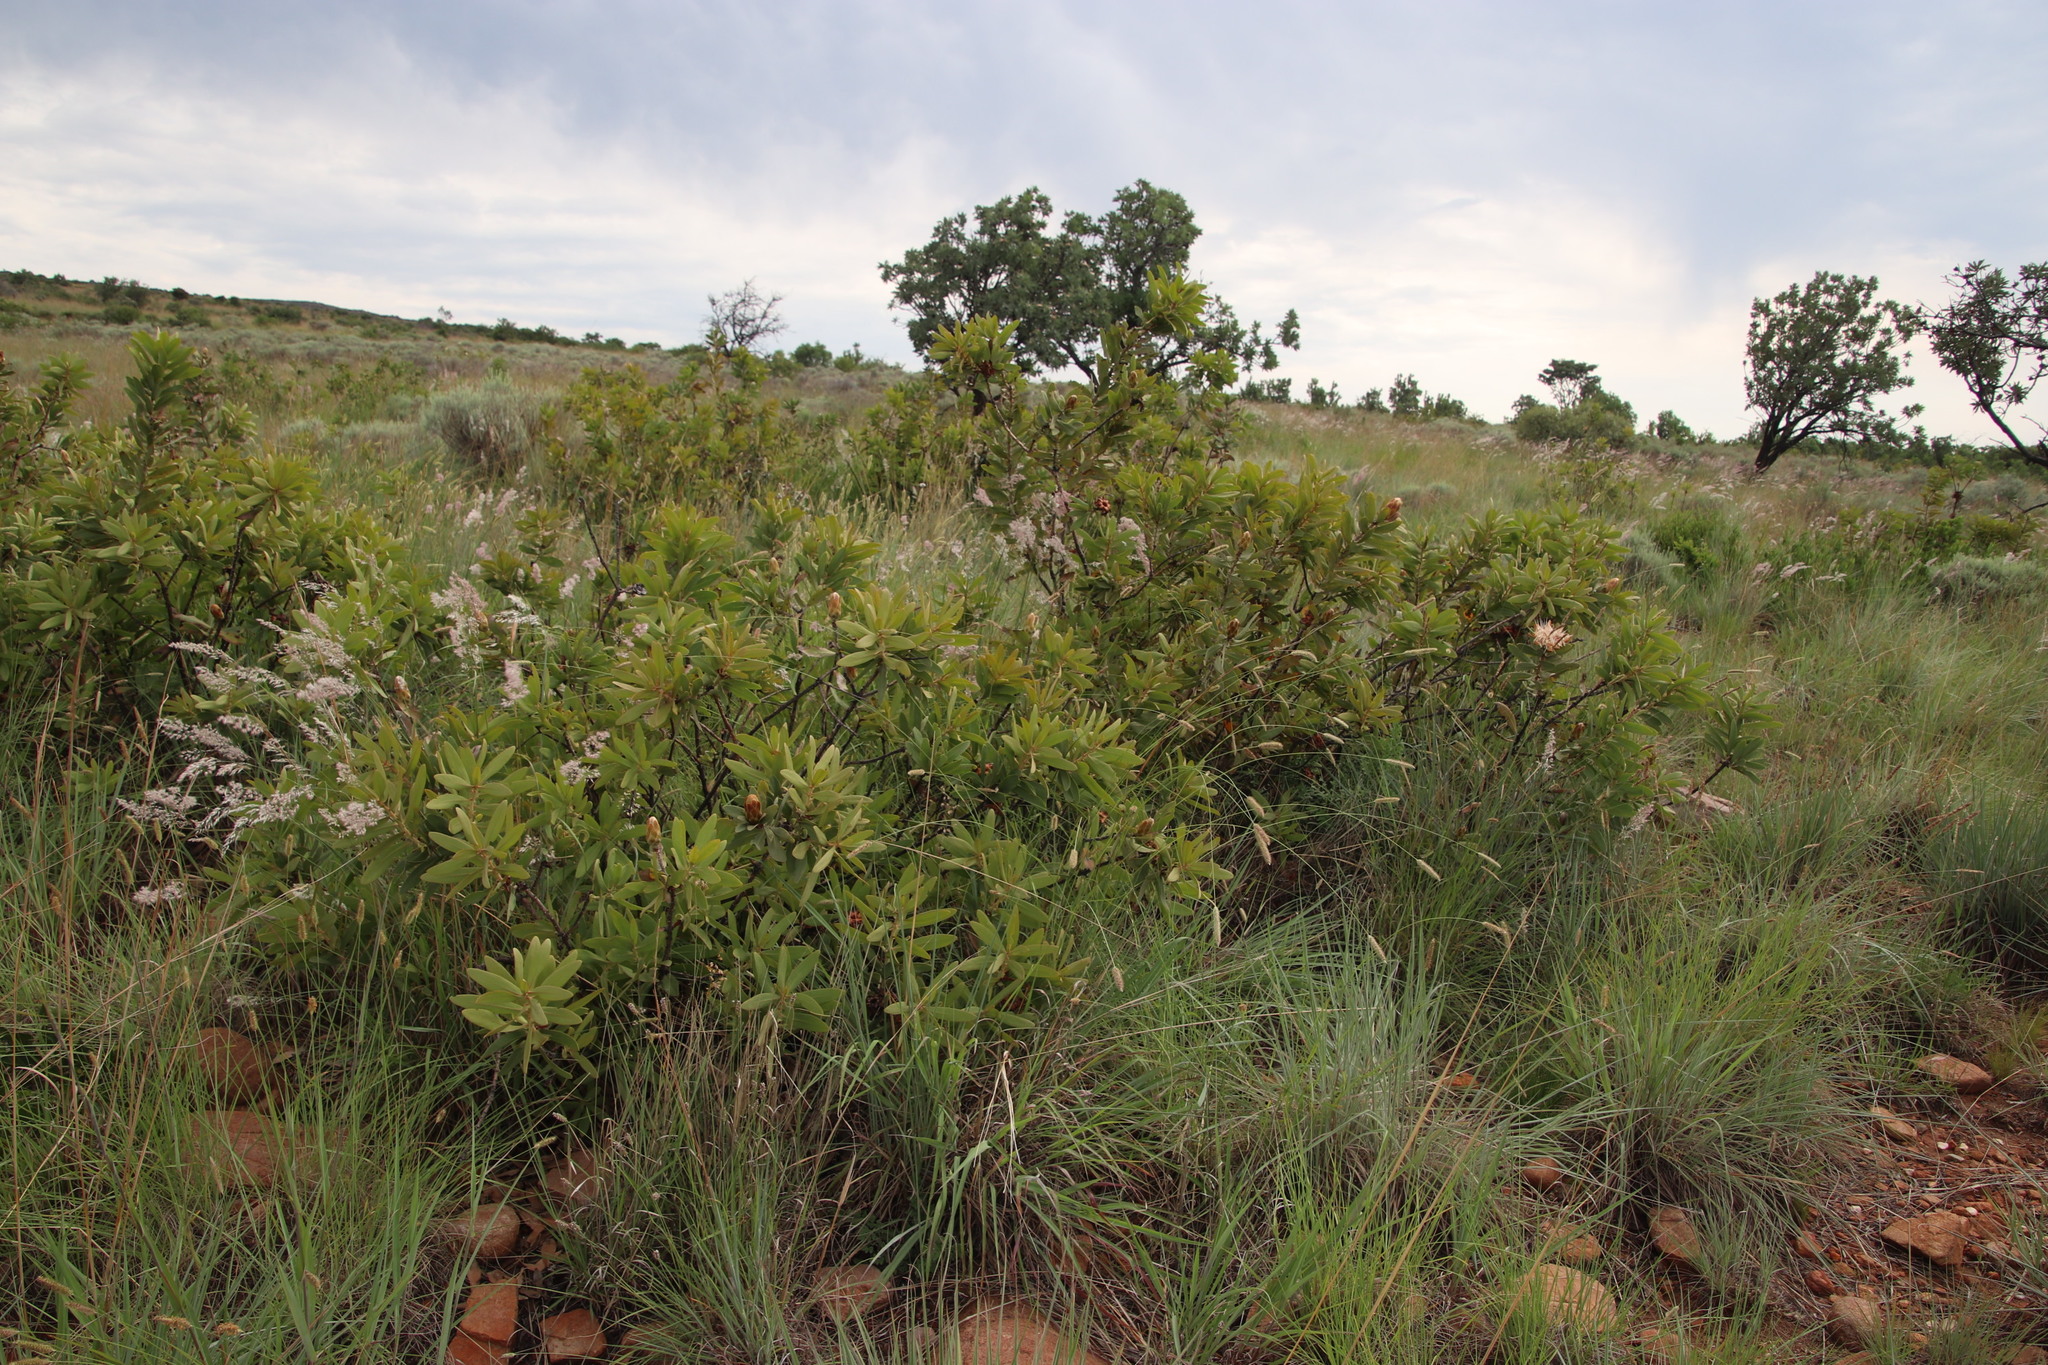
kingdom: Plantae
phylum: Tracheophyta
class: Magnoliopsida
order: Proteales
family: Proteaceae
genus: Protea
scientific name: Protea welwitschii
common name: Cluster-head protea
